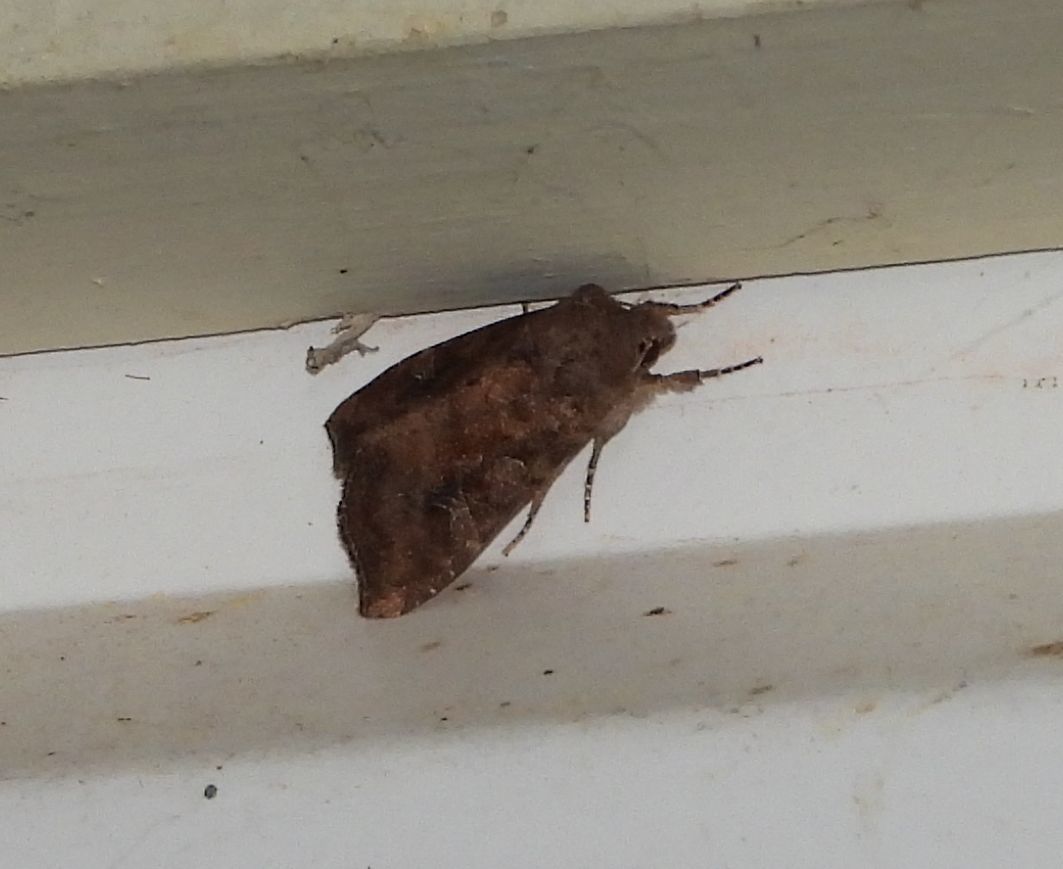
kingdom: Animalia
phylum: Arthropoda
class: Insecta
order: Lepidoptera
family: Noctuidae
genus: Loscopia
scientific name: Loscopia velata
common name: Veiled ear moth
